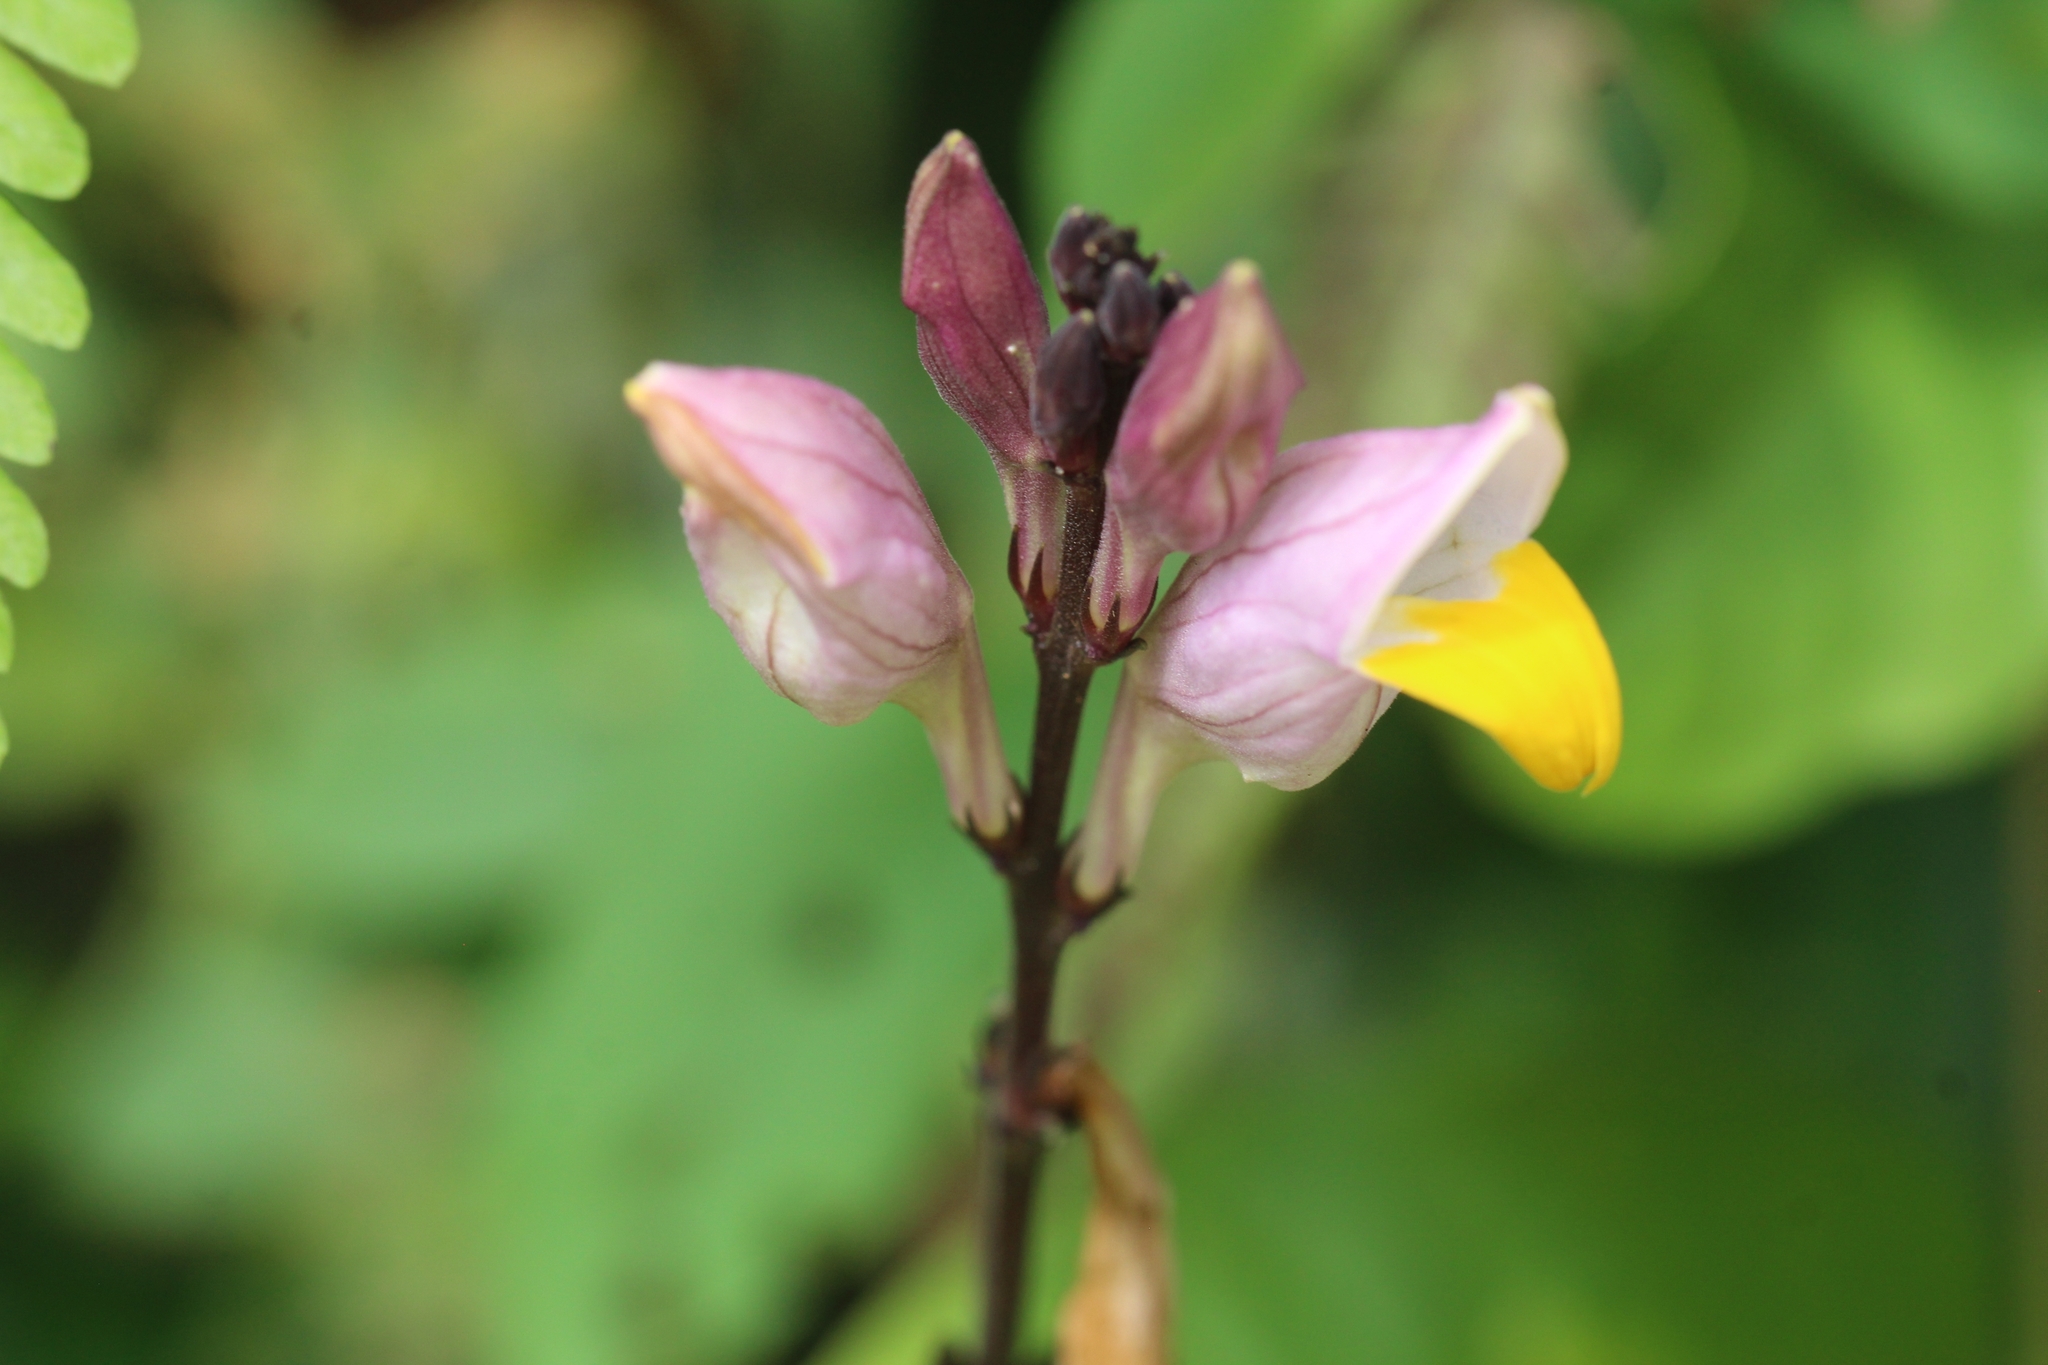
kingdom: Plantae
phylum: Tracheophyta
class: Magnoliopsida
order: Lamiales
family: Acanthaceae
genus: Gymnostachyum
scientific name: Gymnostachyum febrifugum
